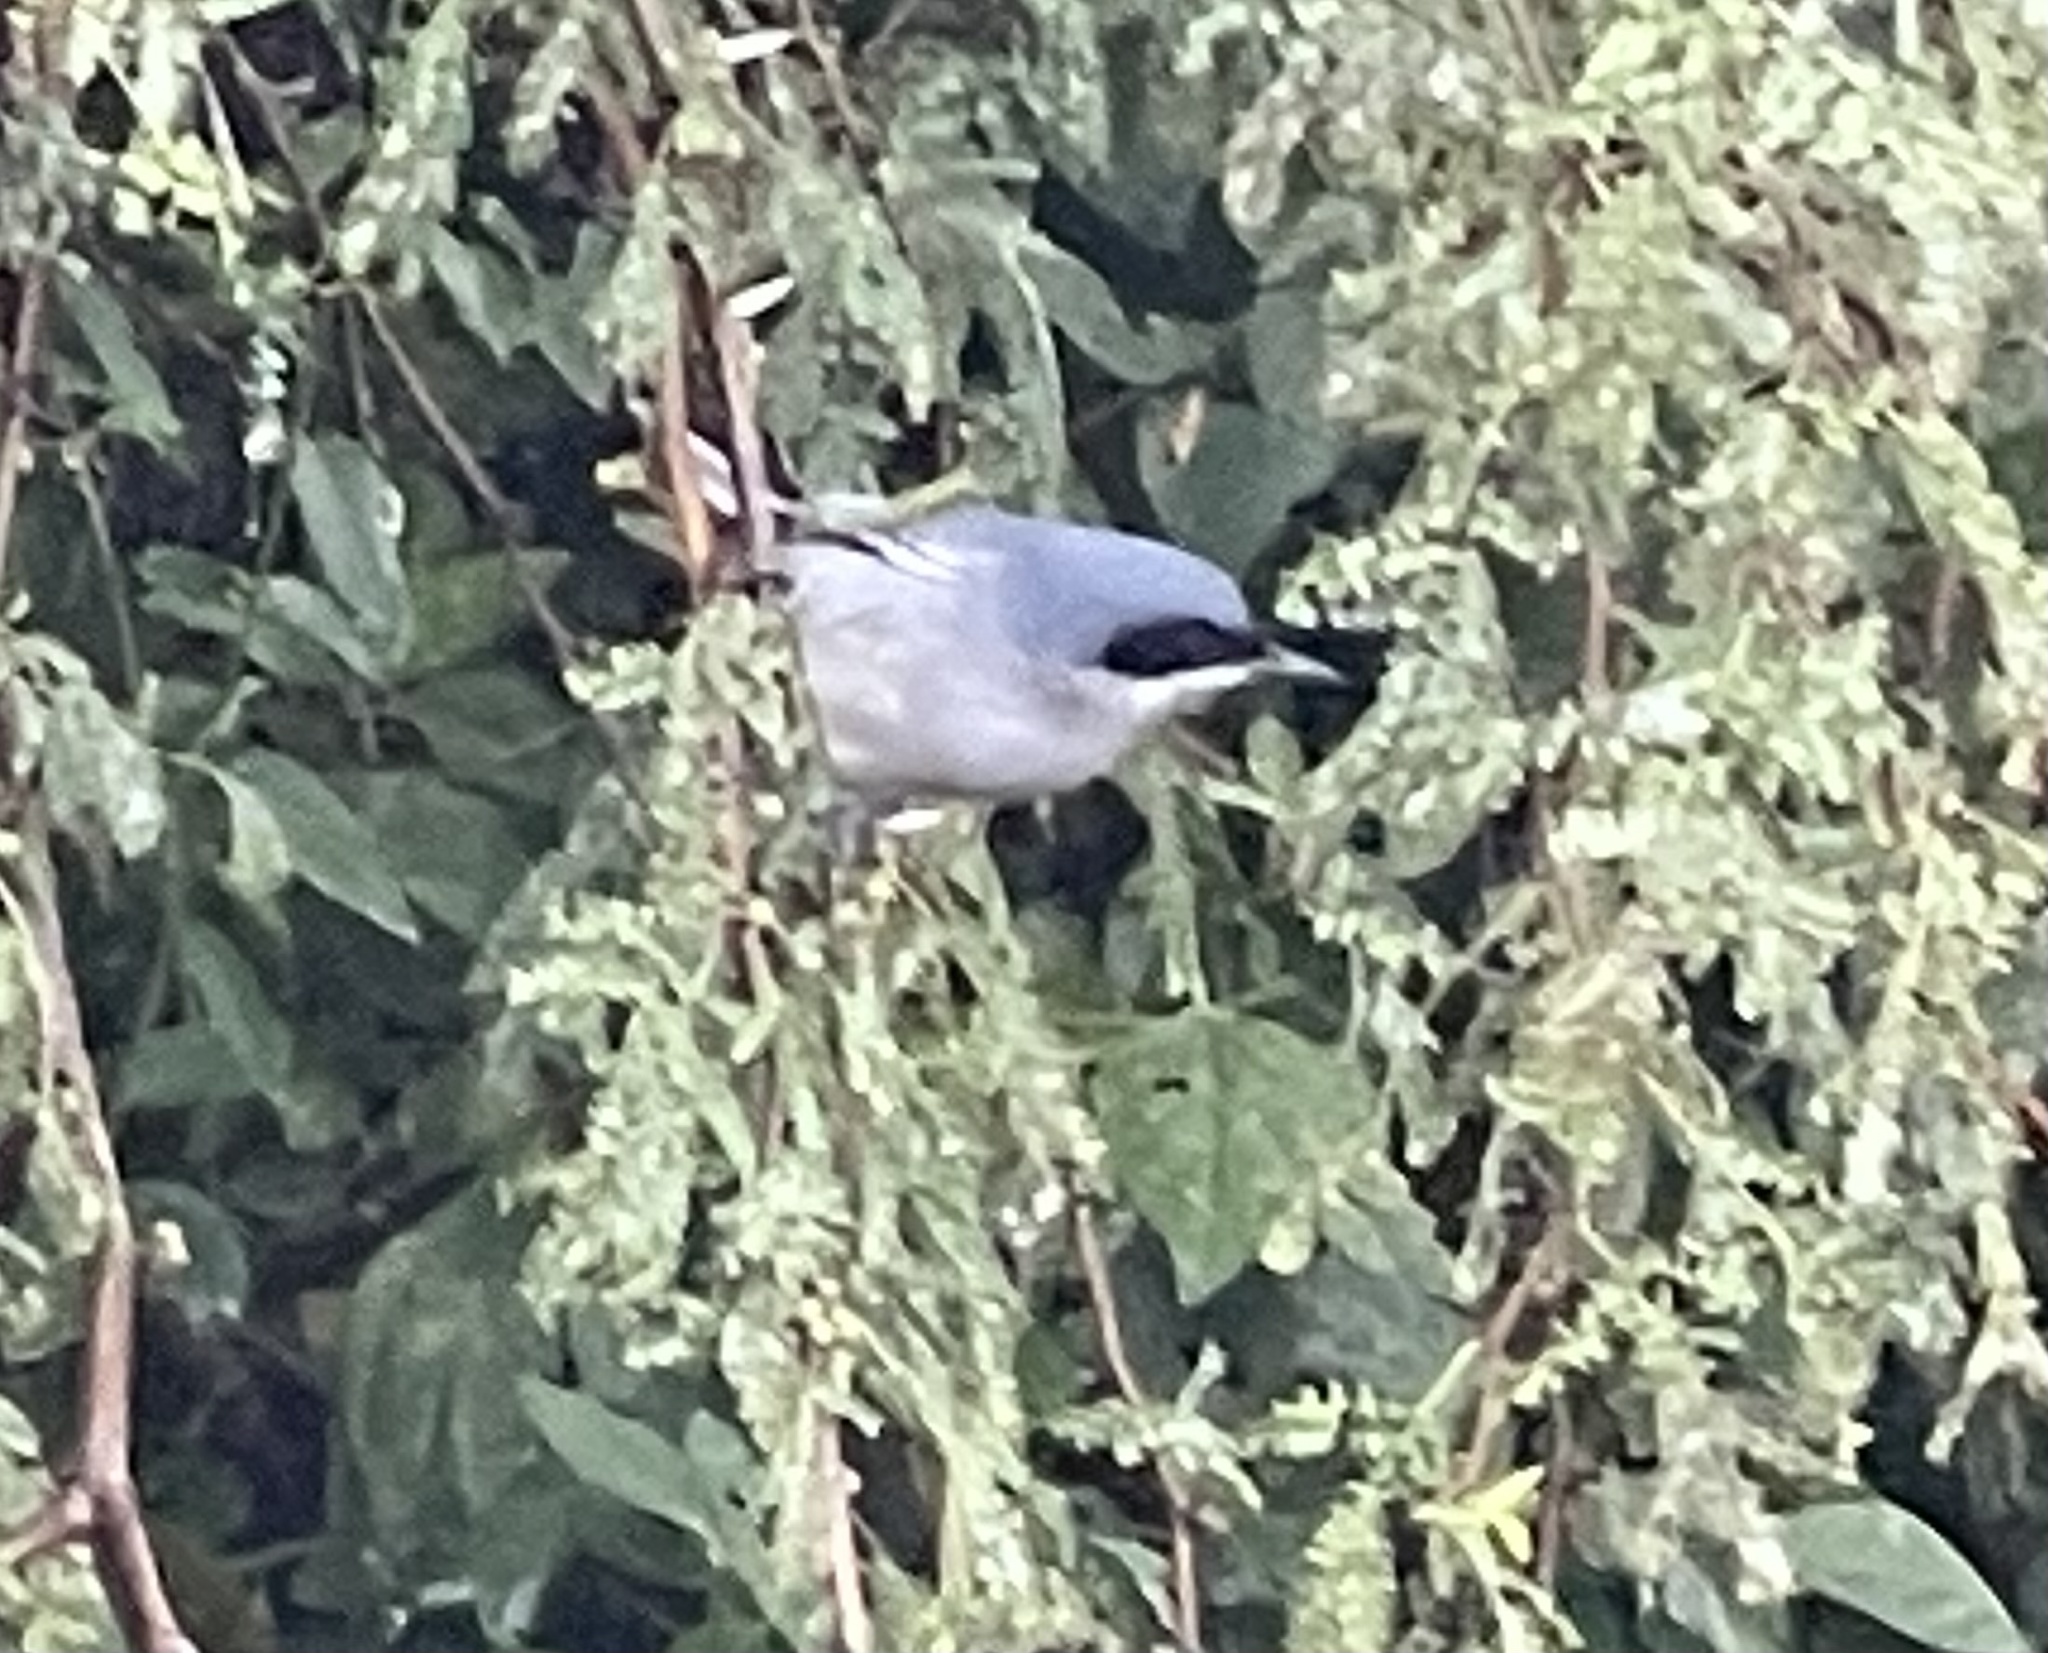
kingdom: Animalia
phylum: Chordata
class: Aves
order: Passeriformes
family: Polioptilidae
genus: Polioptila
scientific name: Polioptila dumicola
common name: Masked gnatcatcher
